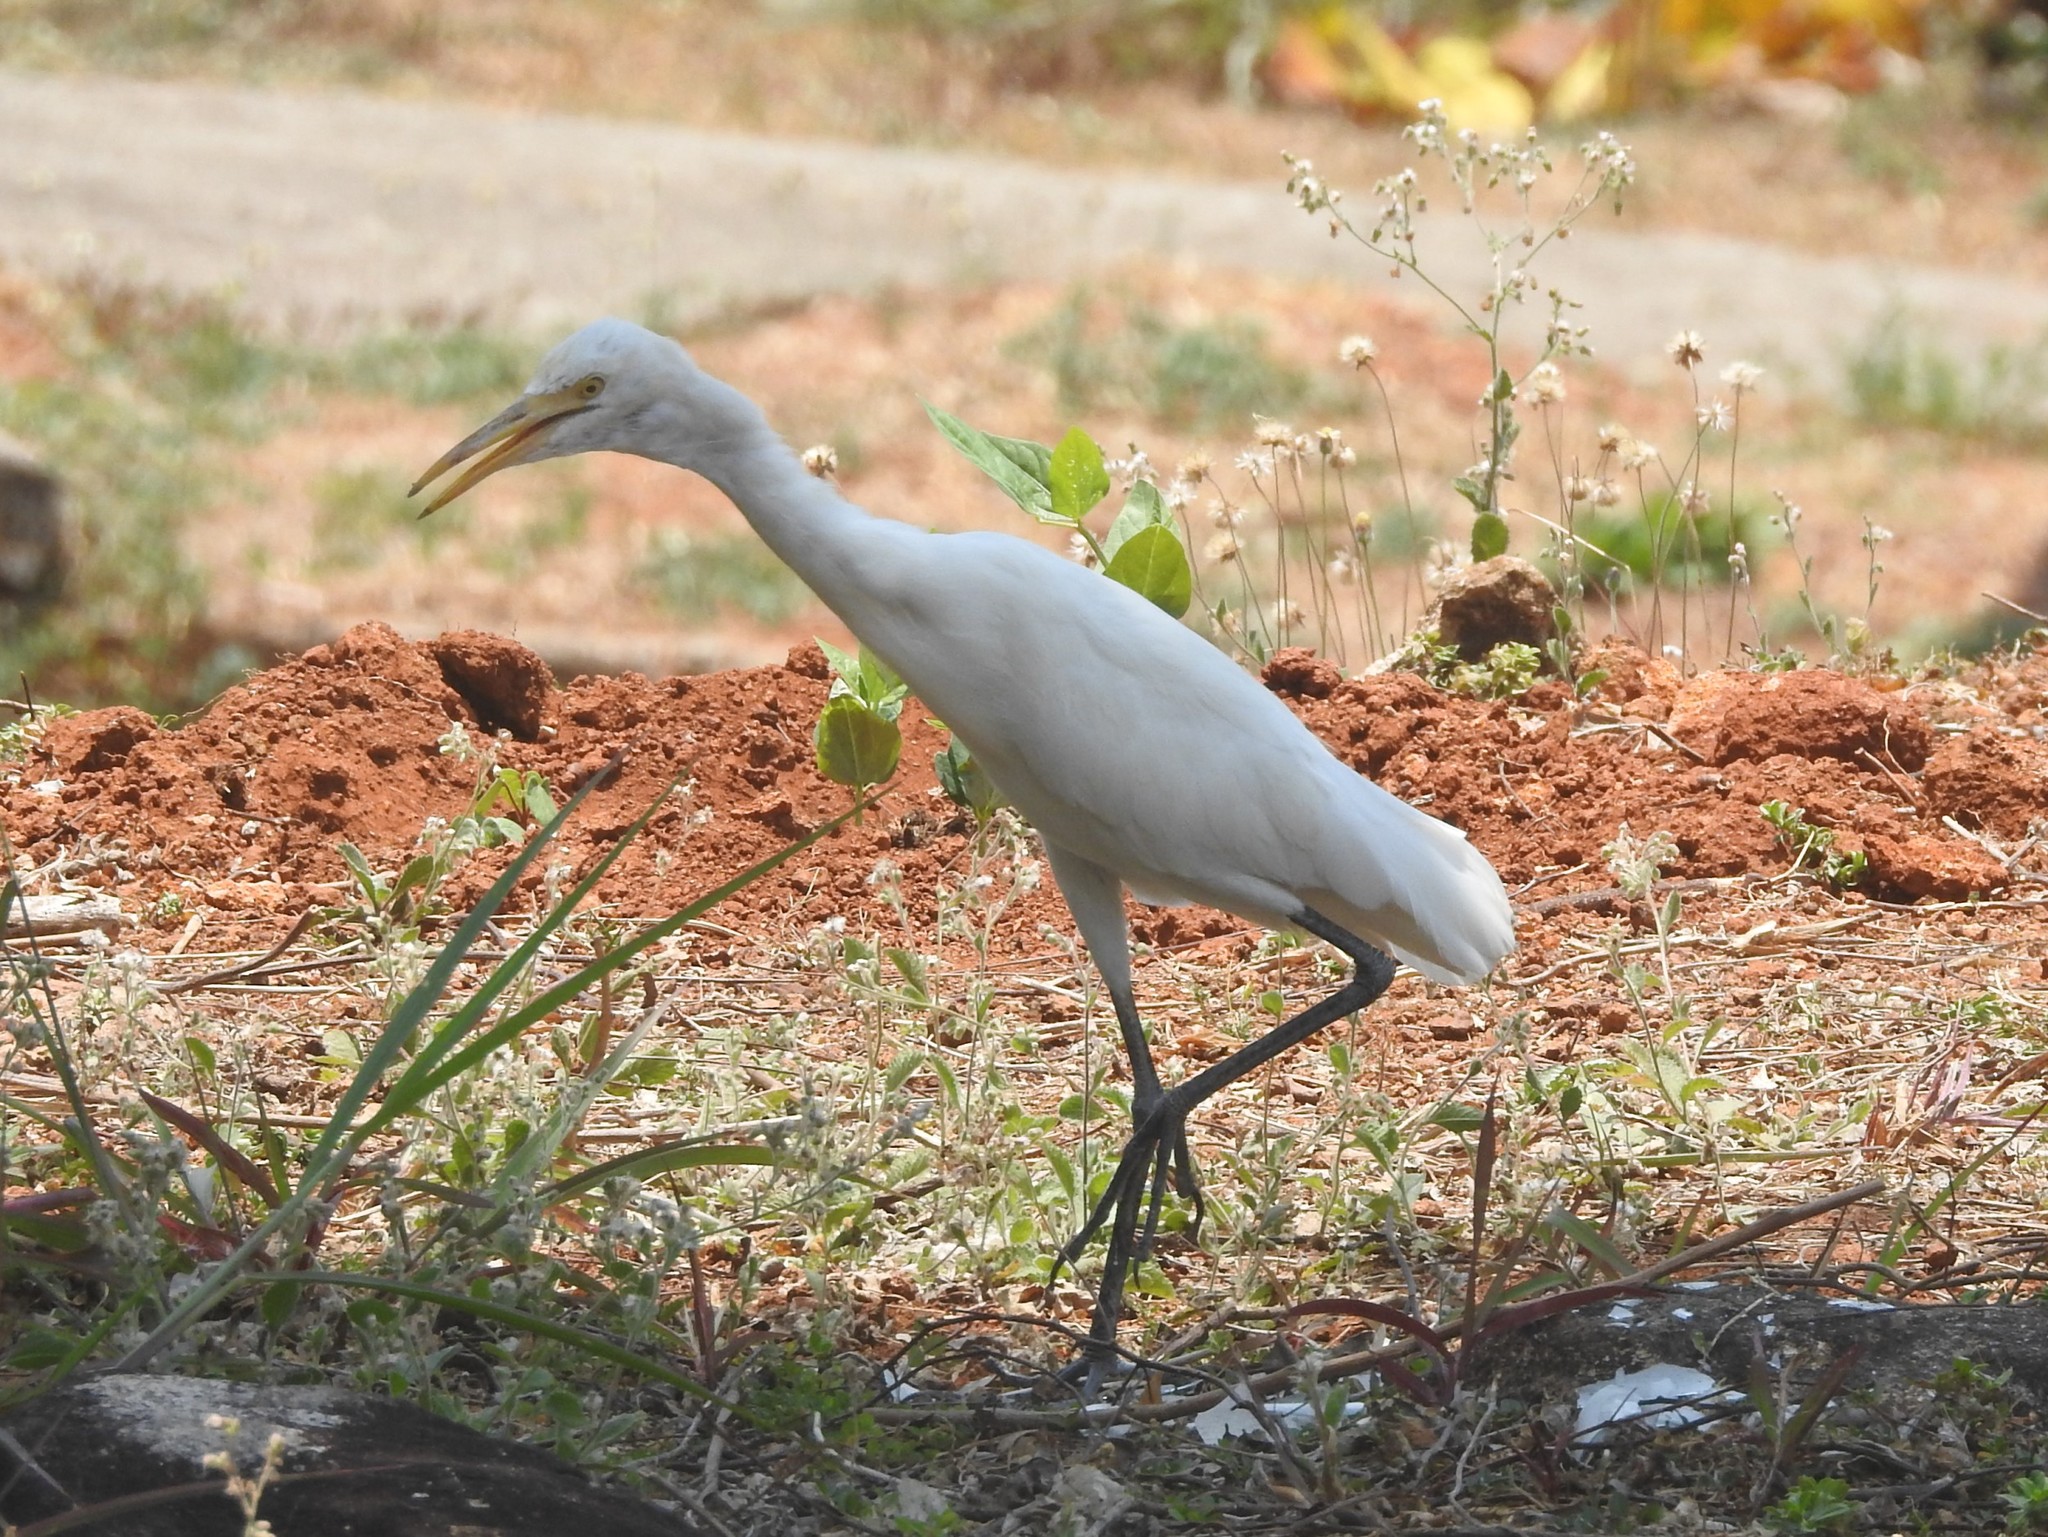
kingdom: Animalia
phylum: Chordata
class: Aves
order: Pelecaniformes
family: Ardeidae
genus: Bubulcus
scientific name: Bubulcus coromandus
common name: Eastern cattle egret
